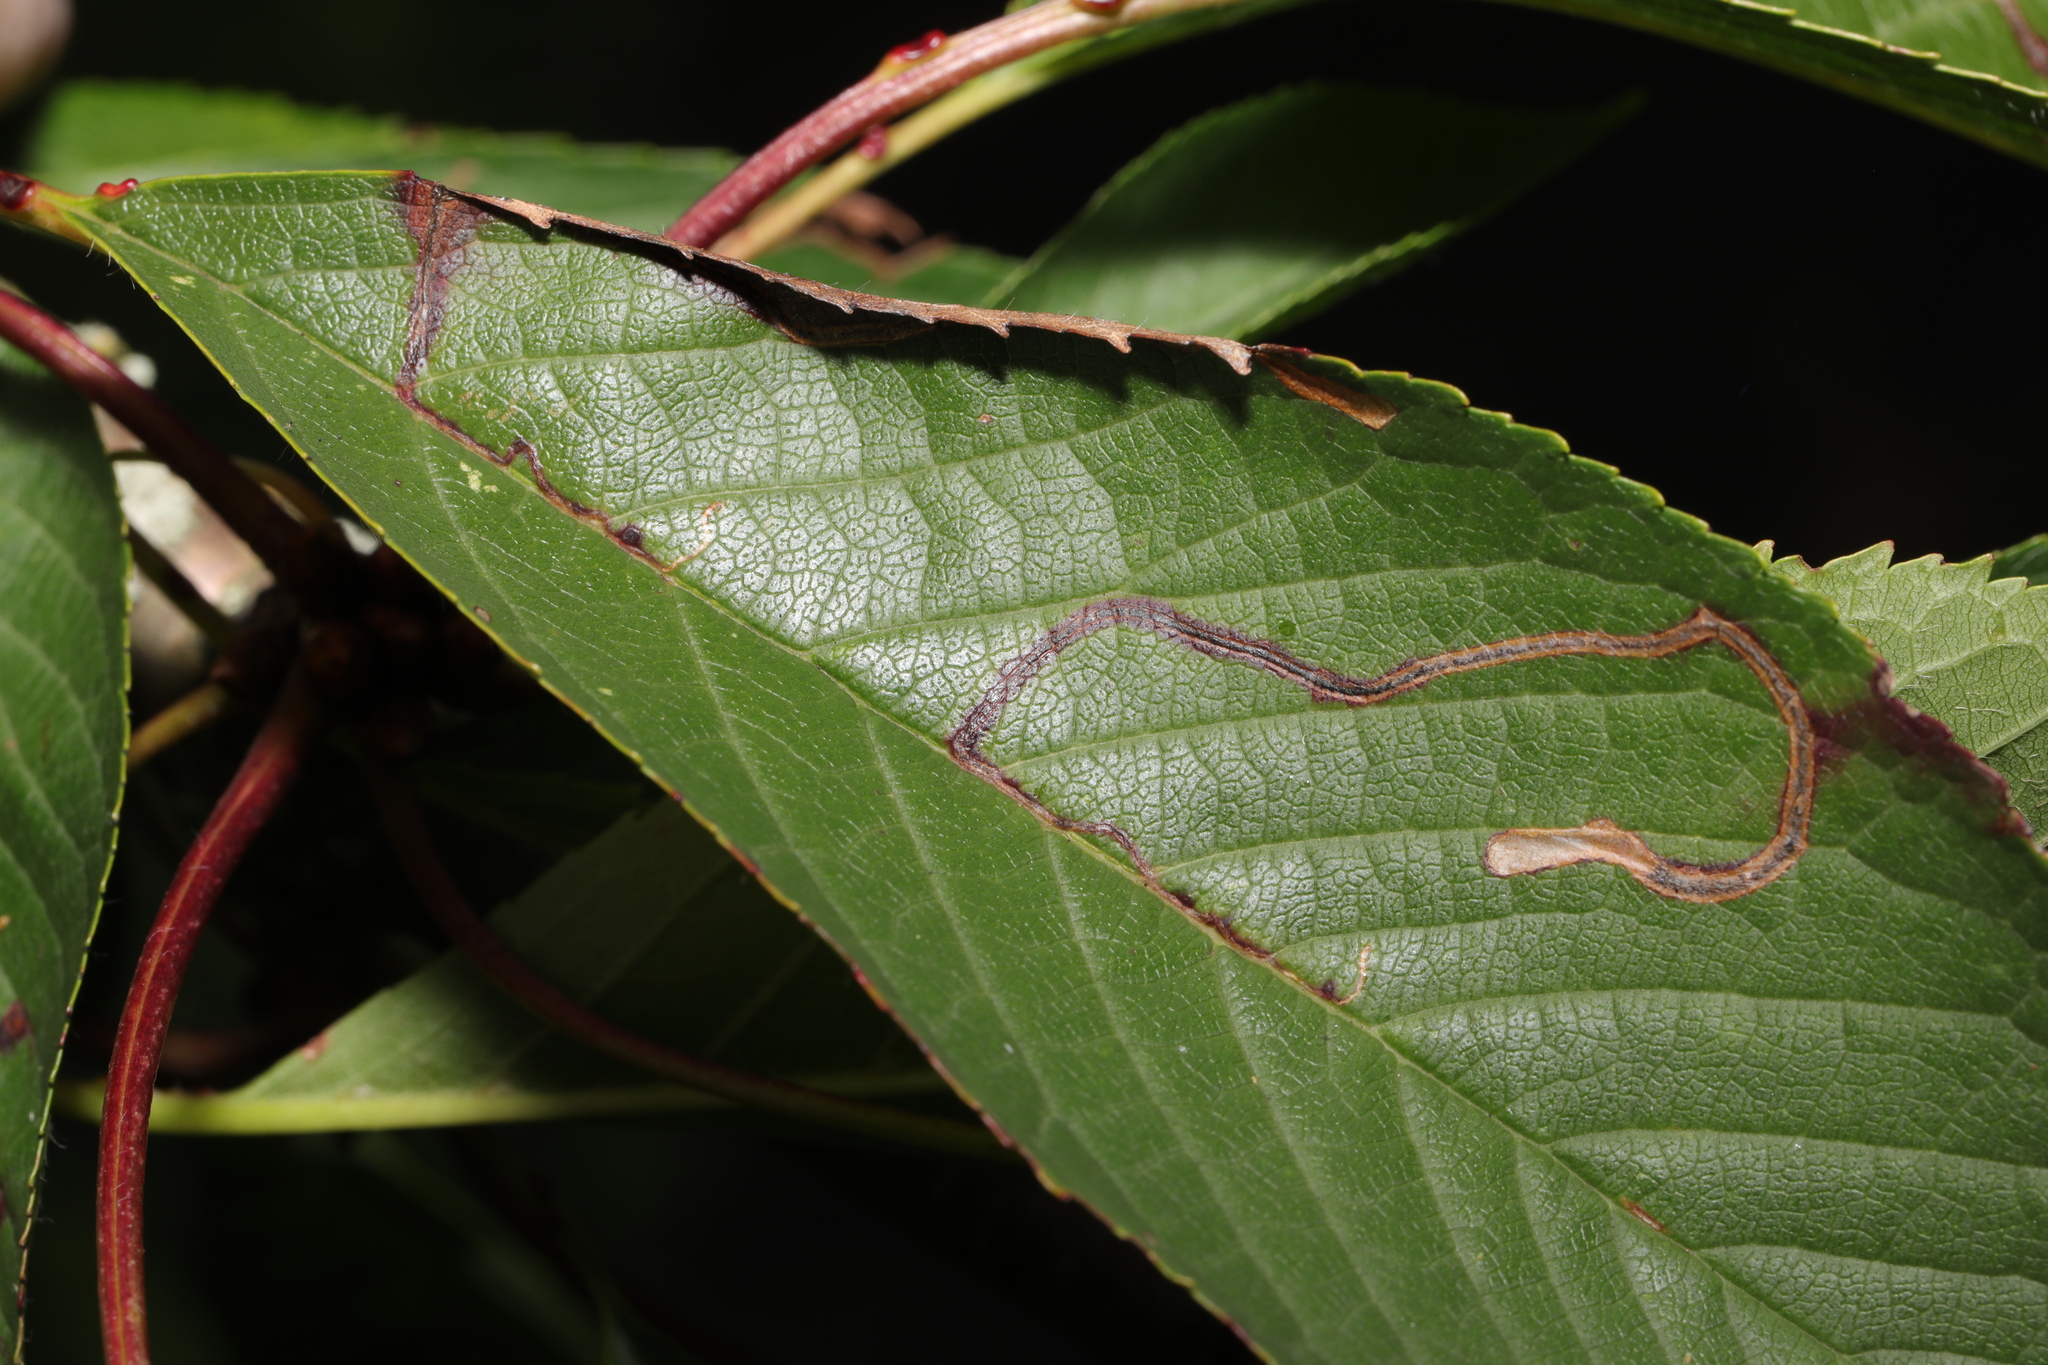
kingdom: Animalia
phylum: Arthropoda
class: Insecta
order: Lepidoptera
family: Lyonetiidae
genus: Lyonetia
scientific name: Lyonetia clerkella
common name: Apple leaf miner
